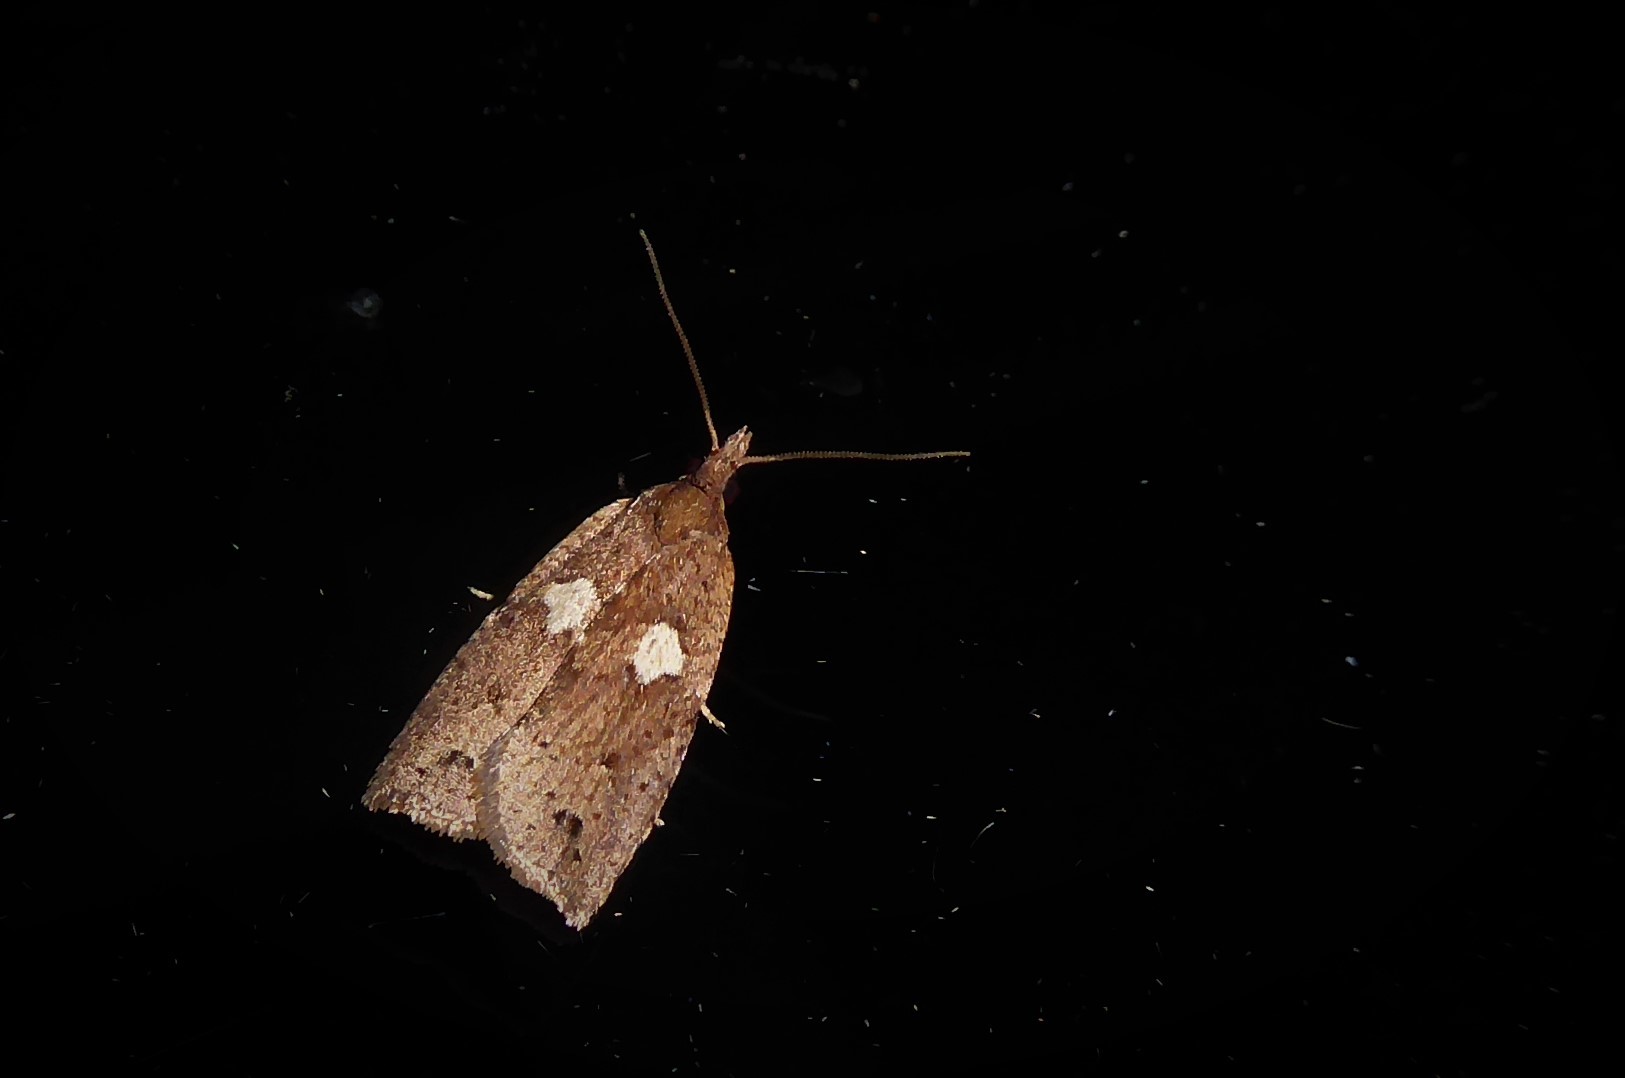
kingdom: Animalia
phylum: Arthropoda
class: Insecta
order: Lepidoptera
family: Tortricidae
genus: Planotortrix
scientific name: Planotortrix notophaea
